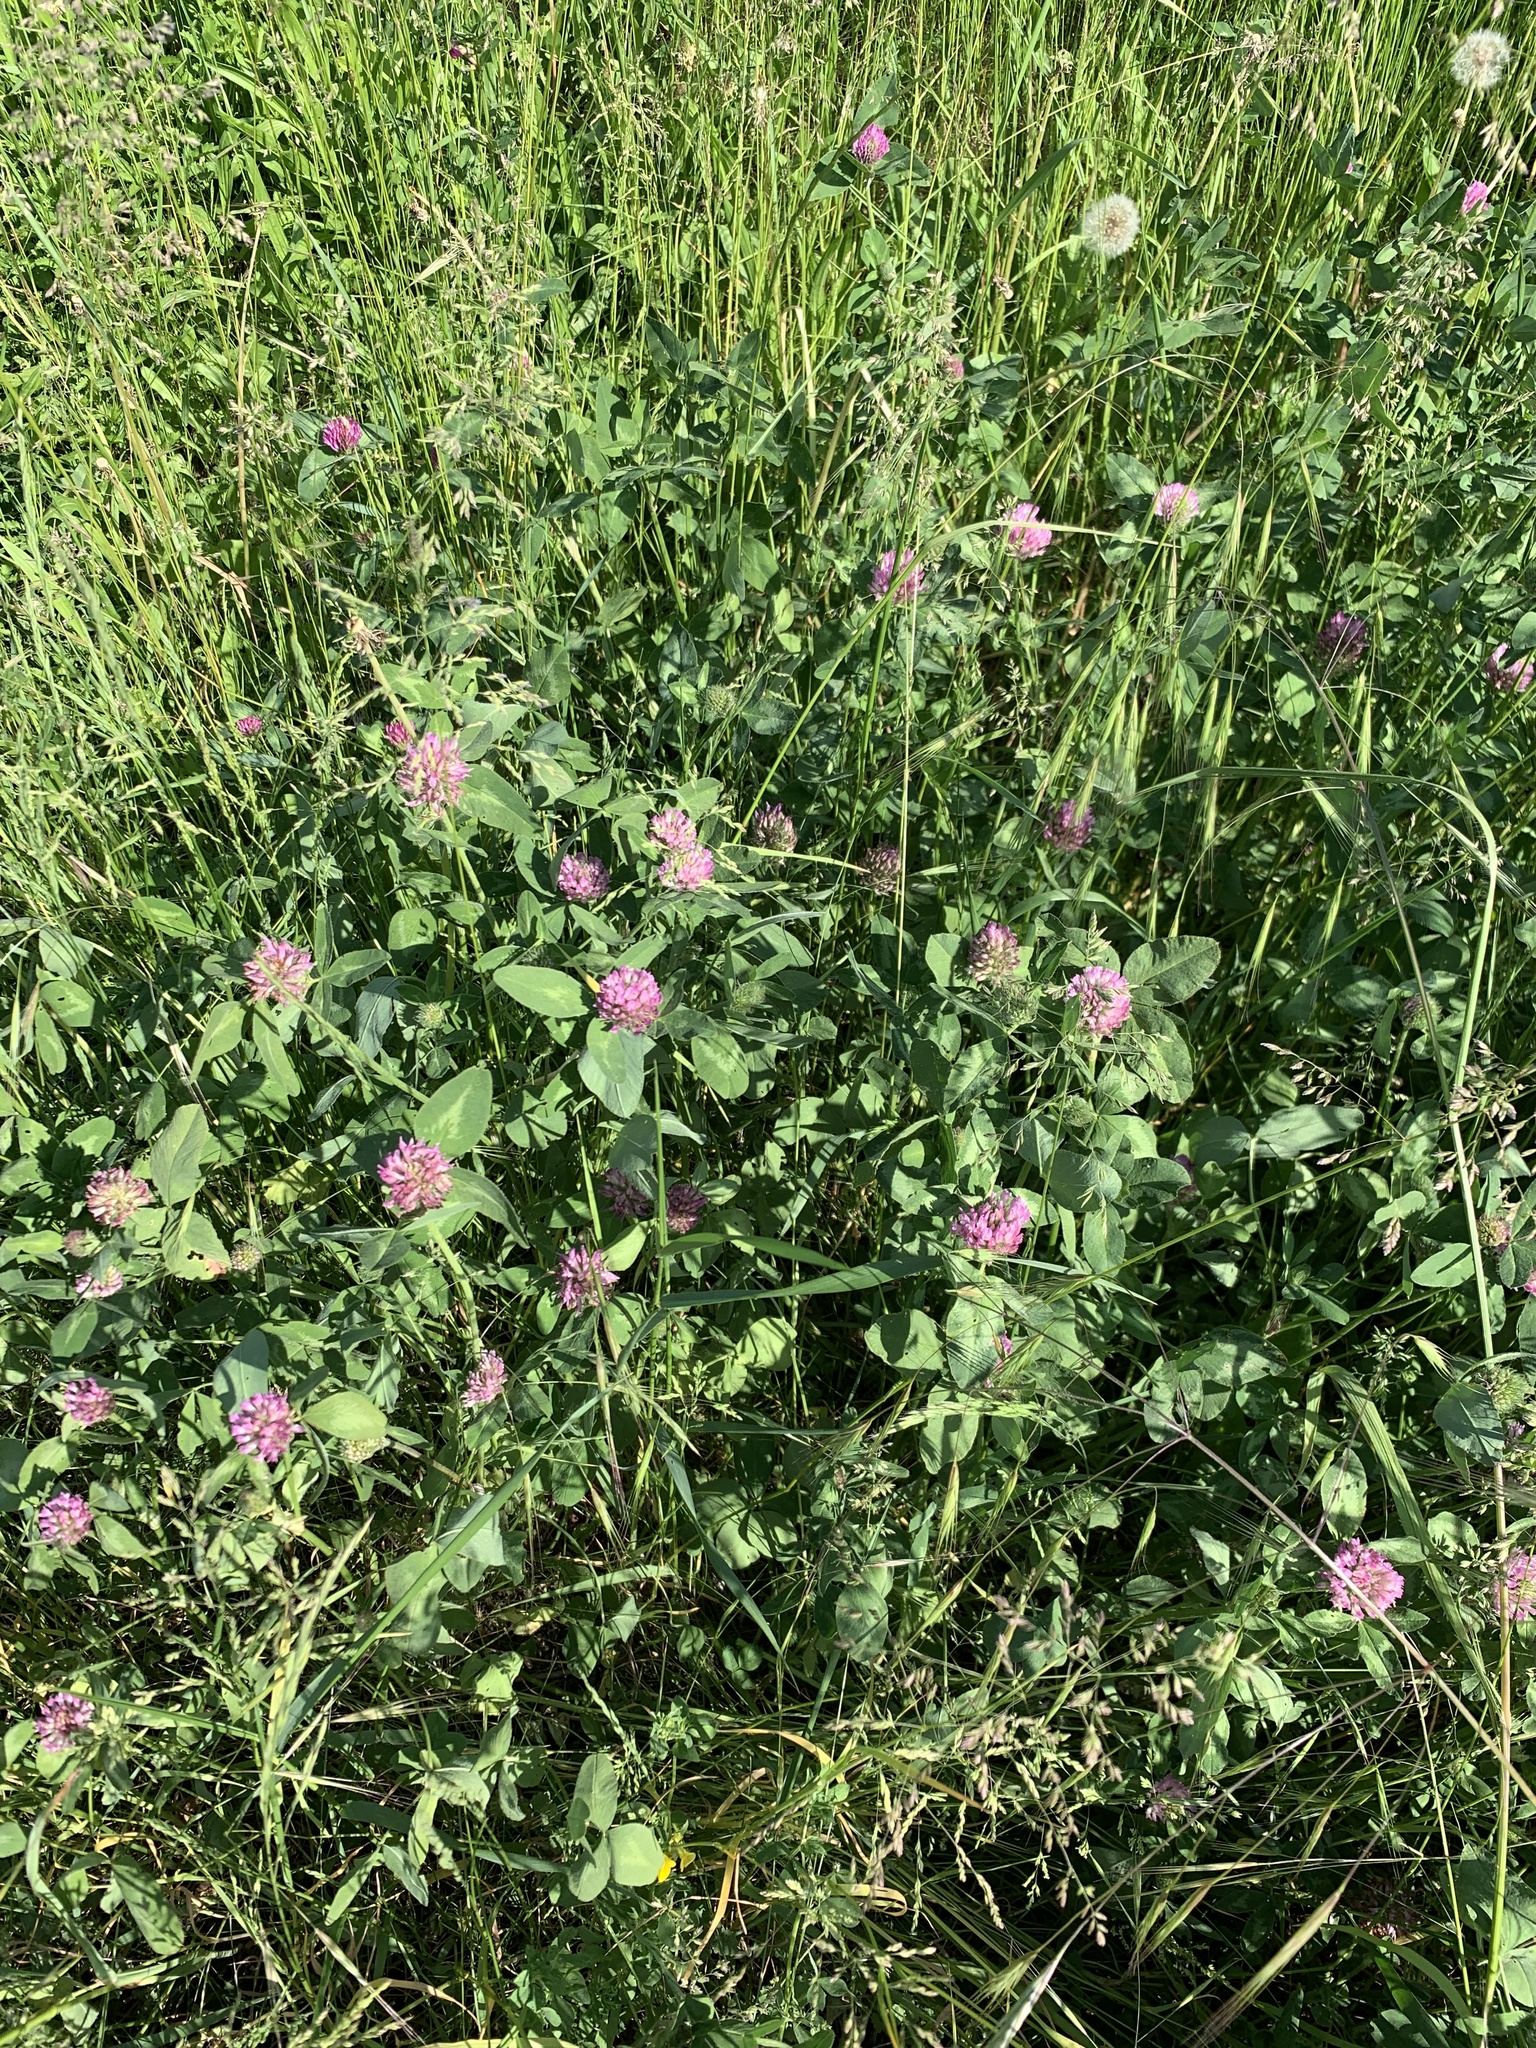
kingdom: Plantae
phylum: Tracheophyta
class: Magnoliopsida
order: Fabales
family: Fabaceae
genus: Trifolium
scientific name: Trifolium pratense
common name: Red clover
